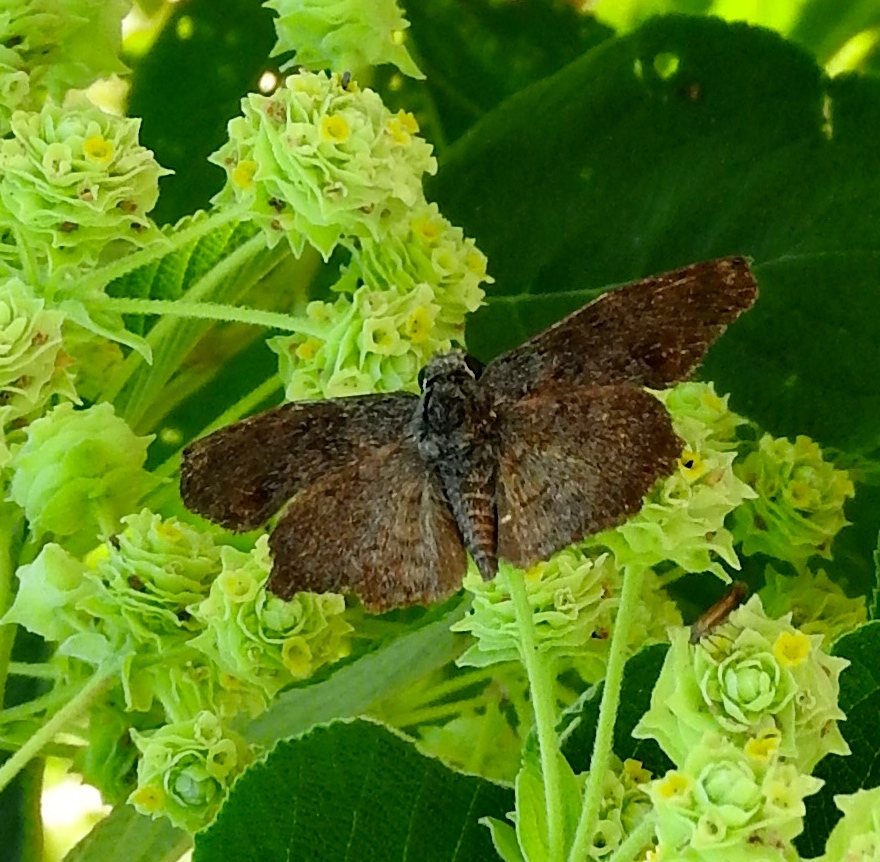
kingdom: Animalia
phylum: Arthropoda
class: Insecta
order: Lepidoptera
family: Hesperiidae
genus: Antigonus
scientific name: Antigonus erosus
